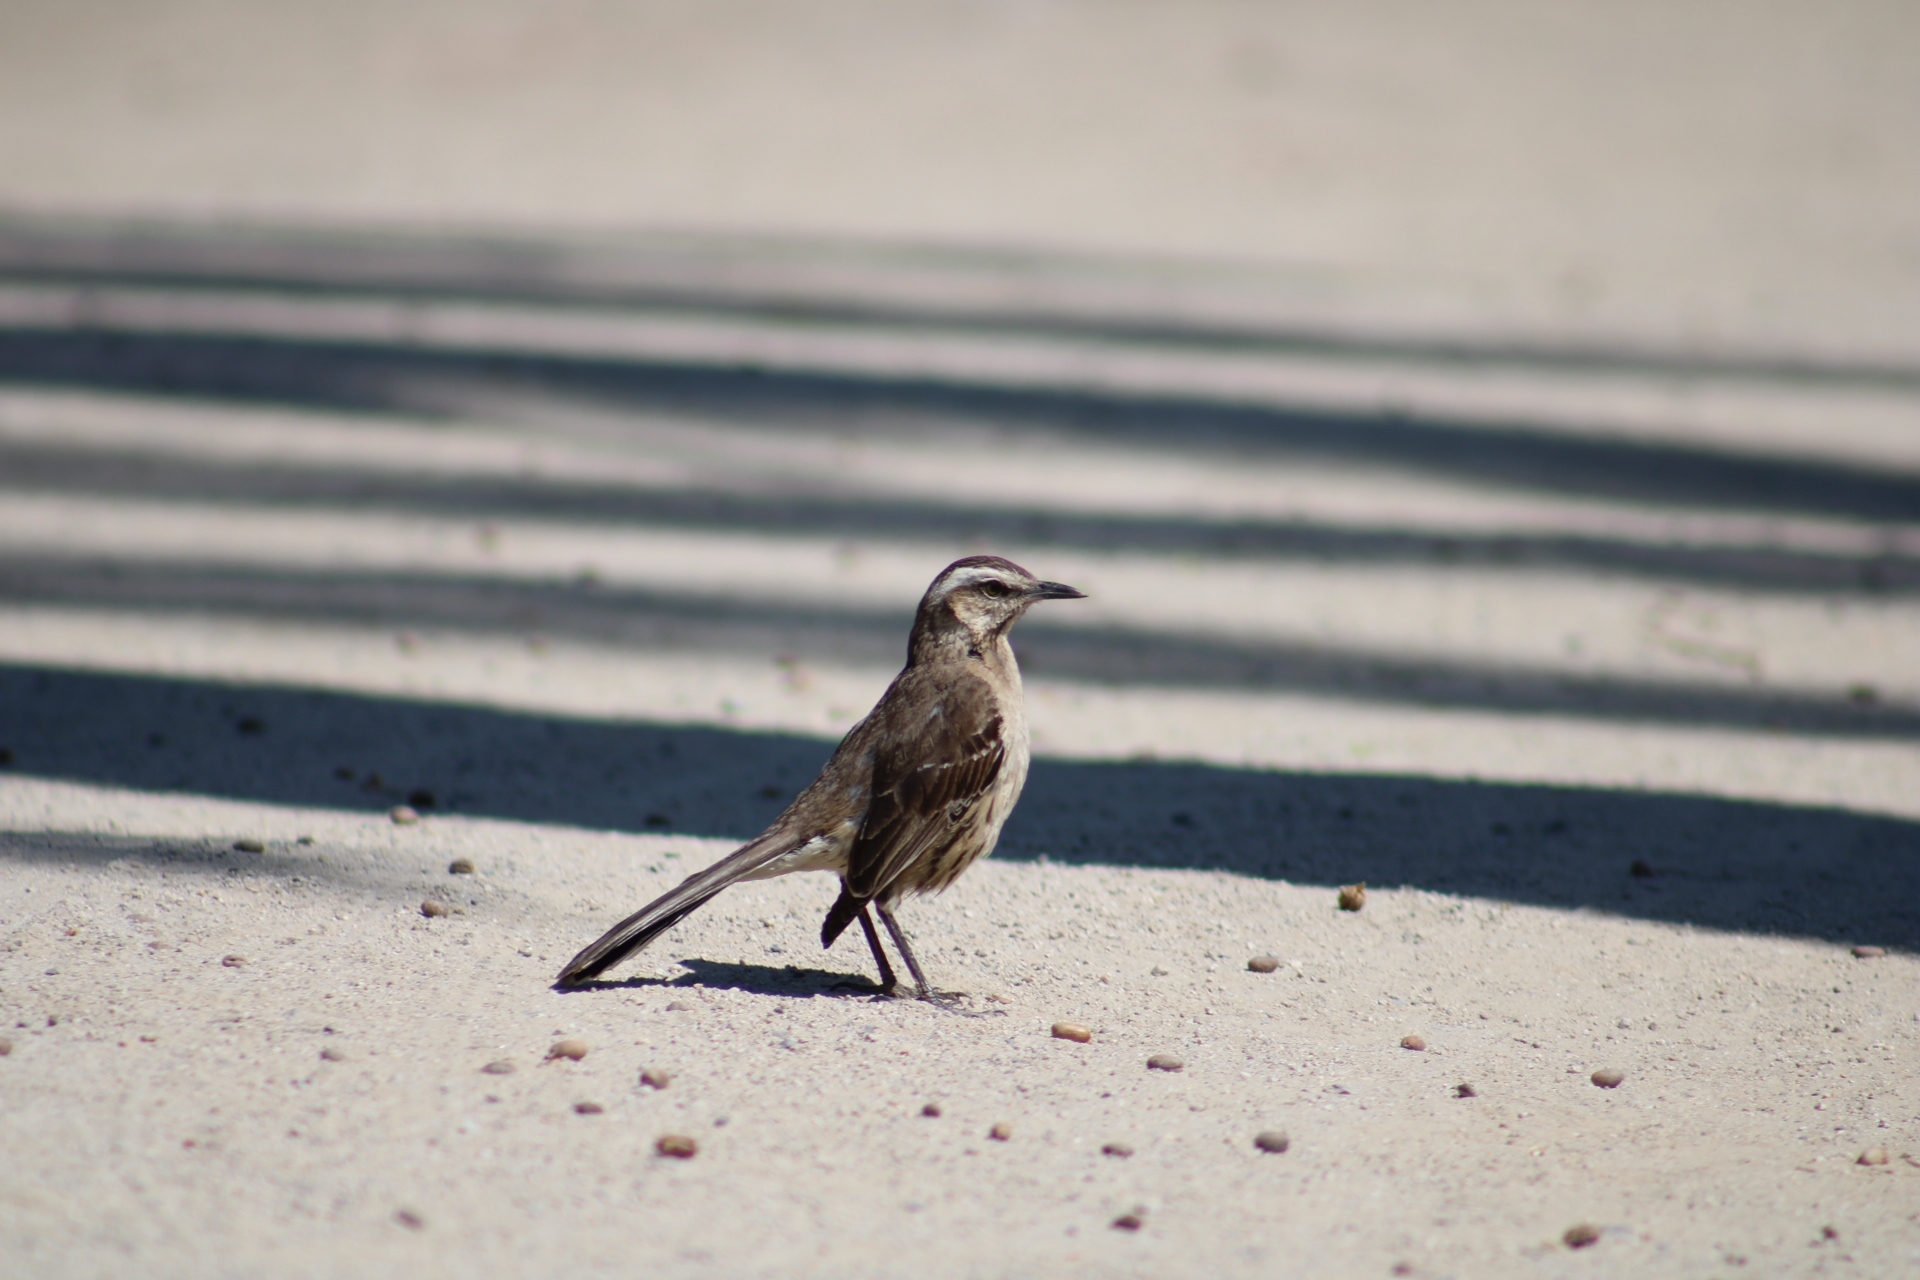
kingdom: Animalia
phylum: Chordata
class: Aves
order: Passeriformes
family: Mimidae
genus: Mimus
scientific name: Mimus thenca
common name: Chilean mockingbird
